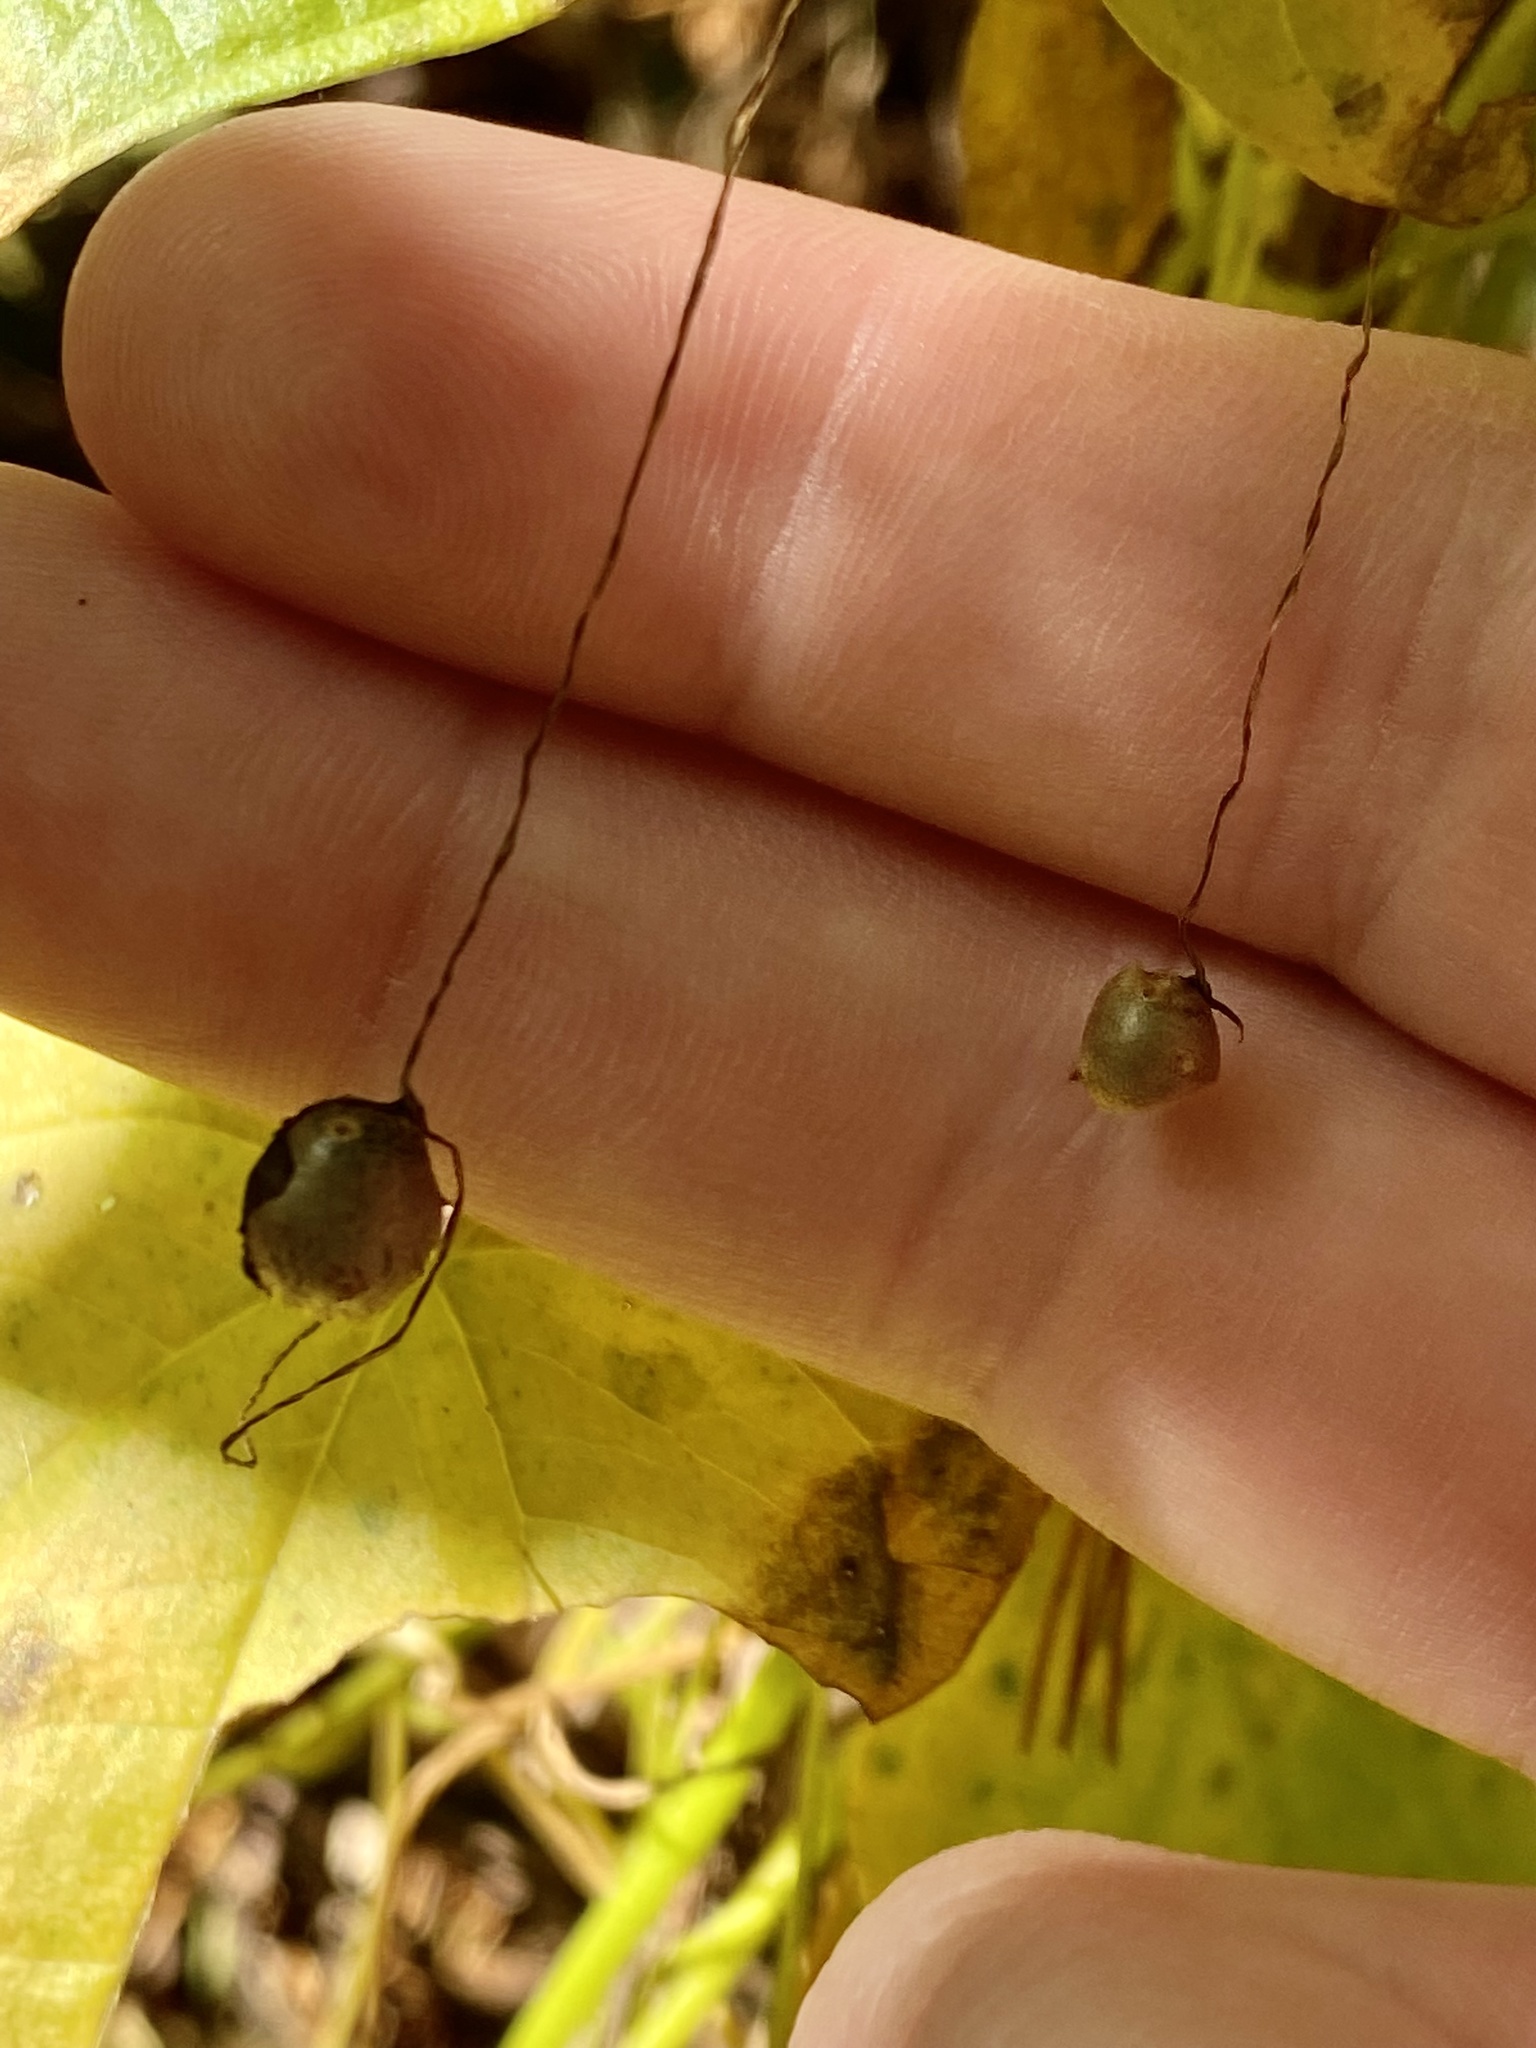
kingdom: Plantae
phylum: Tracheophyta
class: Liliopsida
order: Dioscoreales
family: Dioscoreaceae
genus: Dioscorea
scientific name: Dioscorea polystachya
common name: Chinese yam
